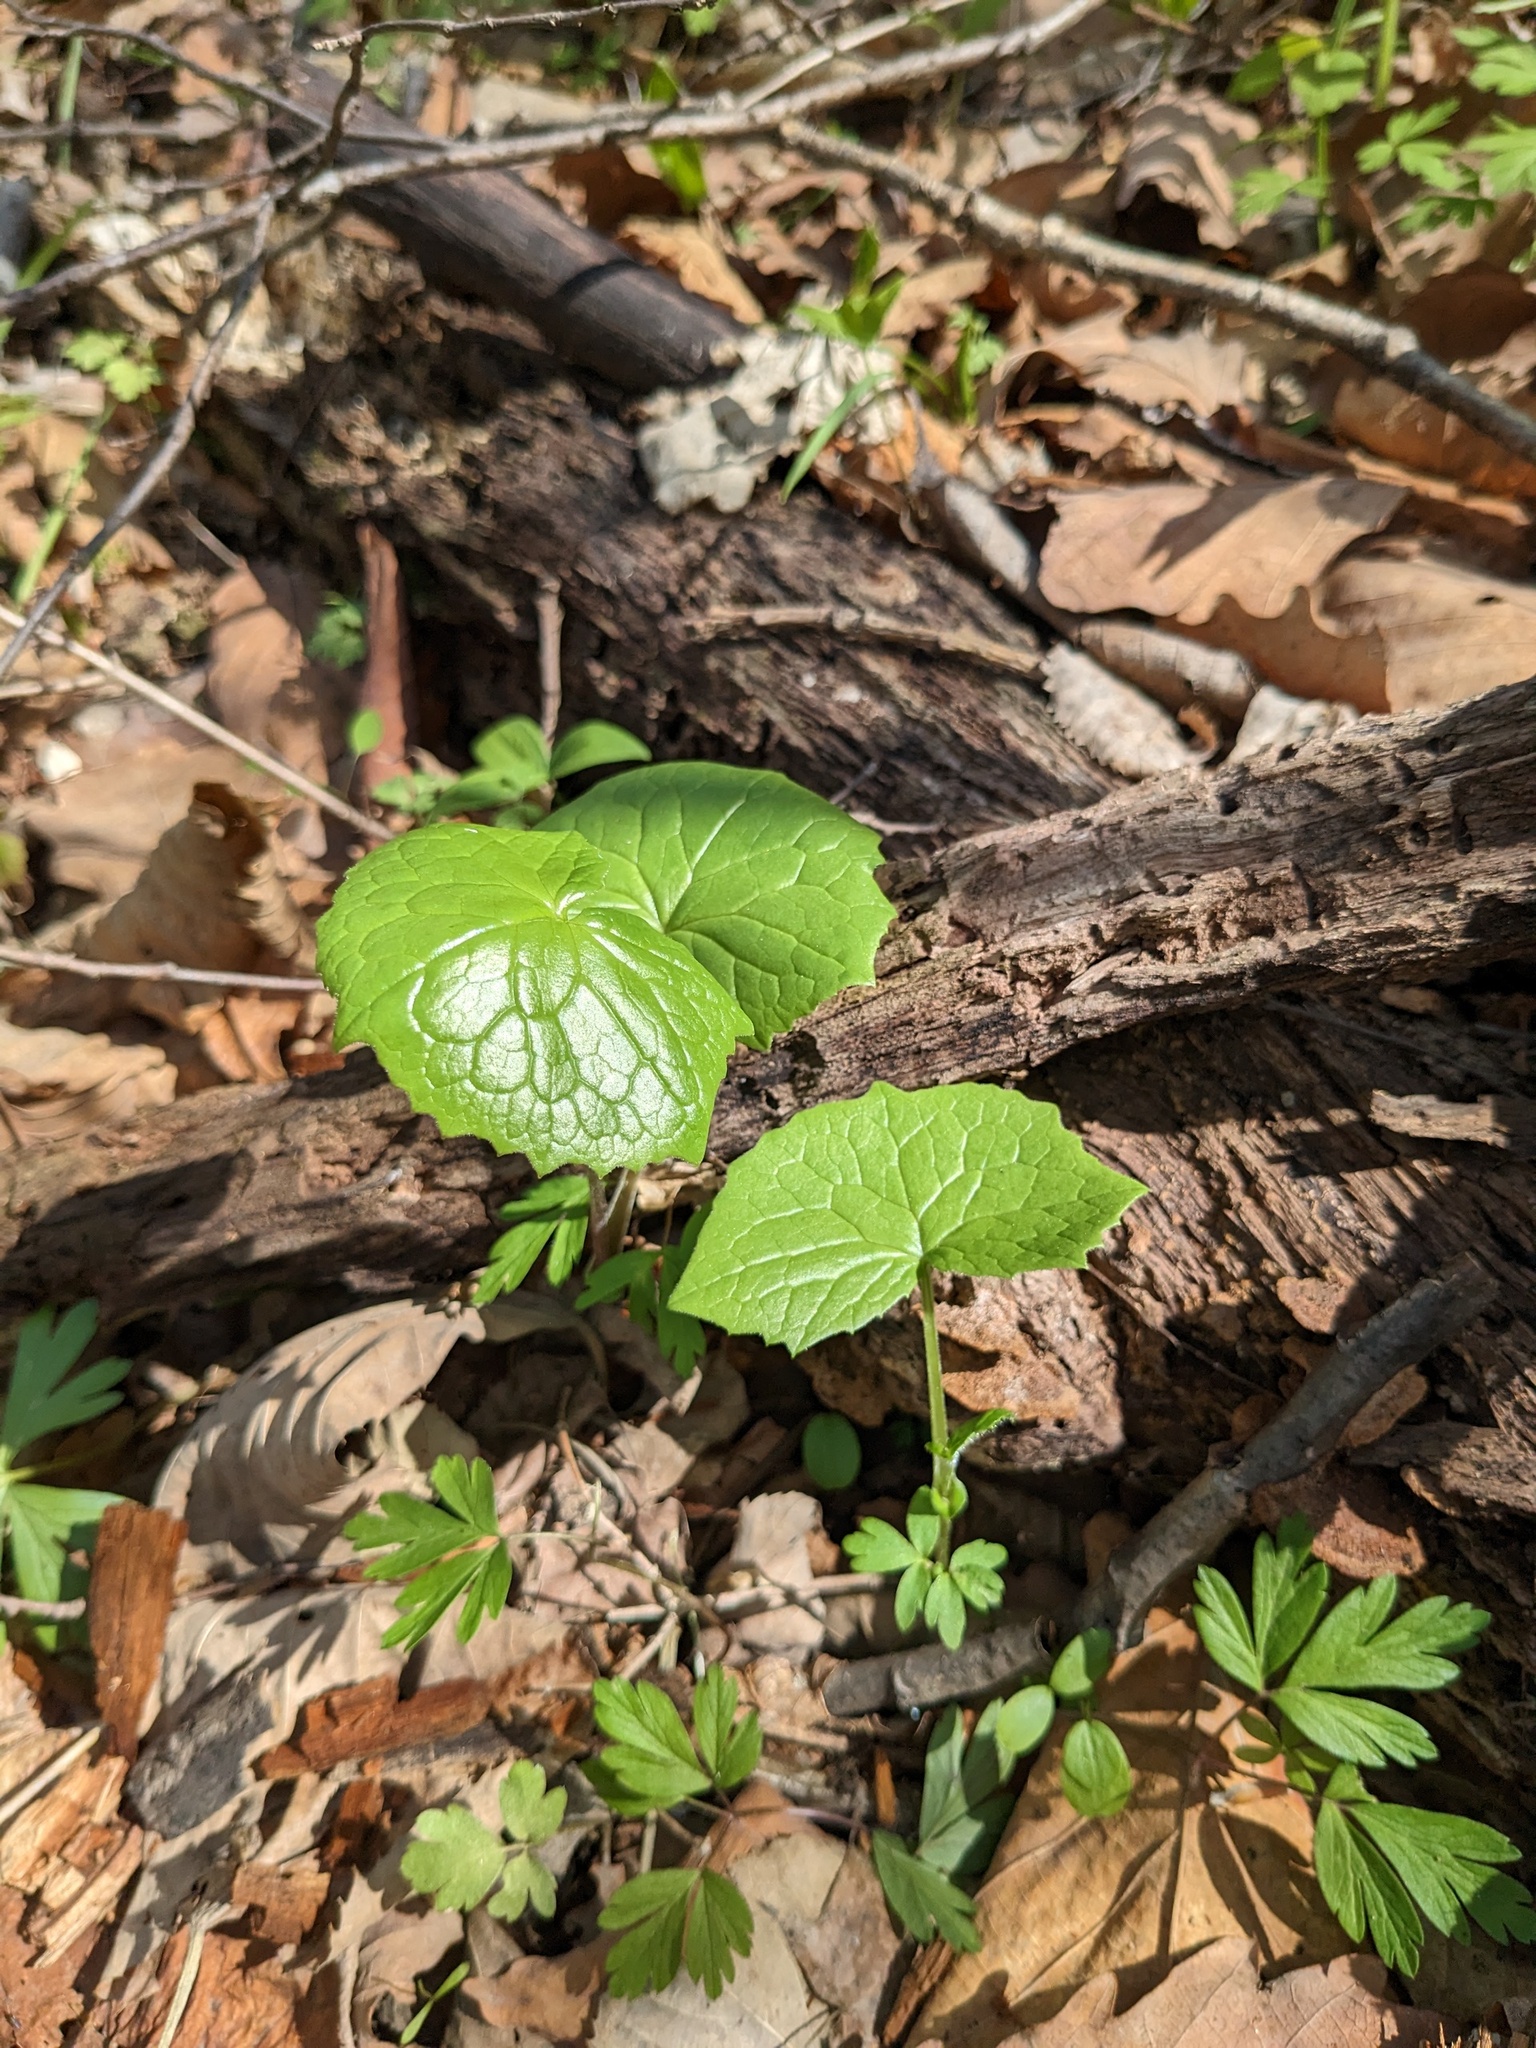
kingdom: Plantae
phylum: Tracheophyta
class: Magnoliopsida
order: Asterales
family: Asteraceae
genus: Parasenecio
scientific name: Parasenecio praetermissus
